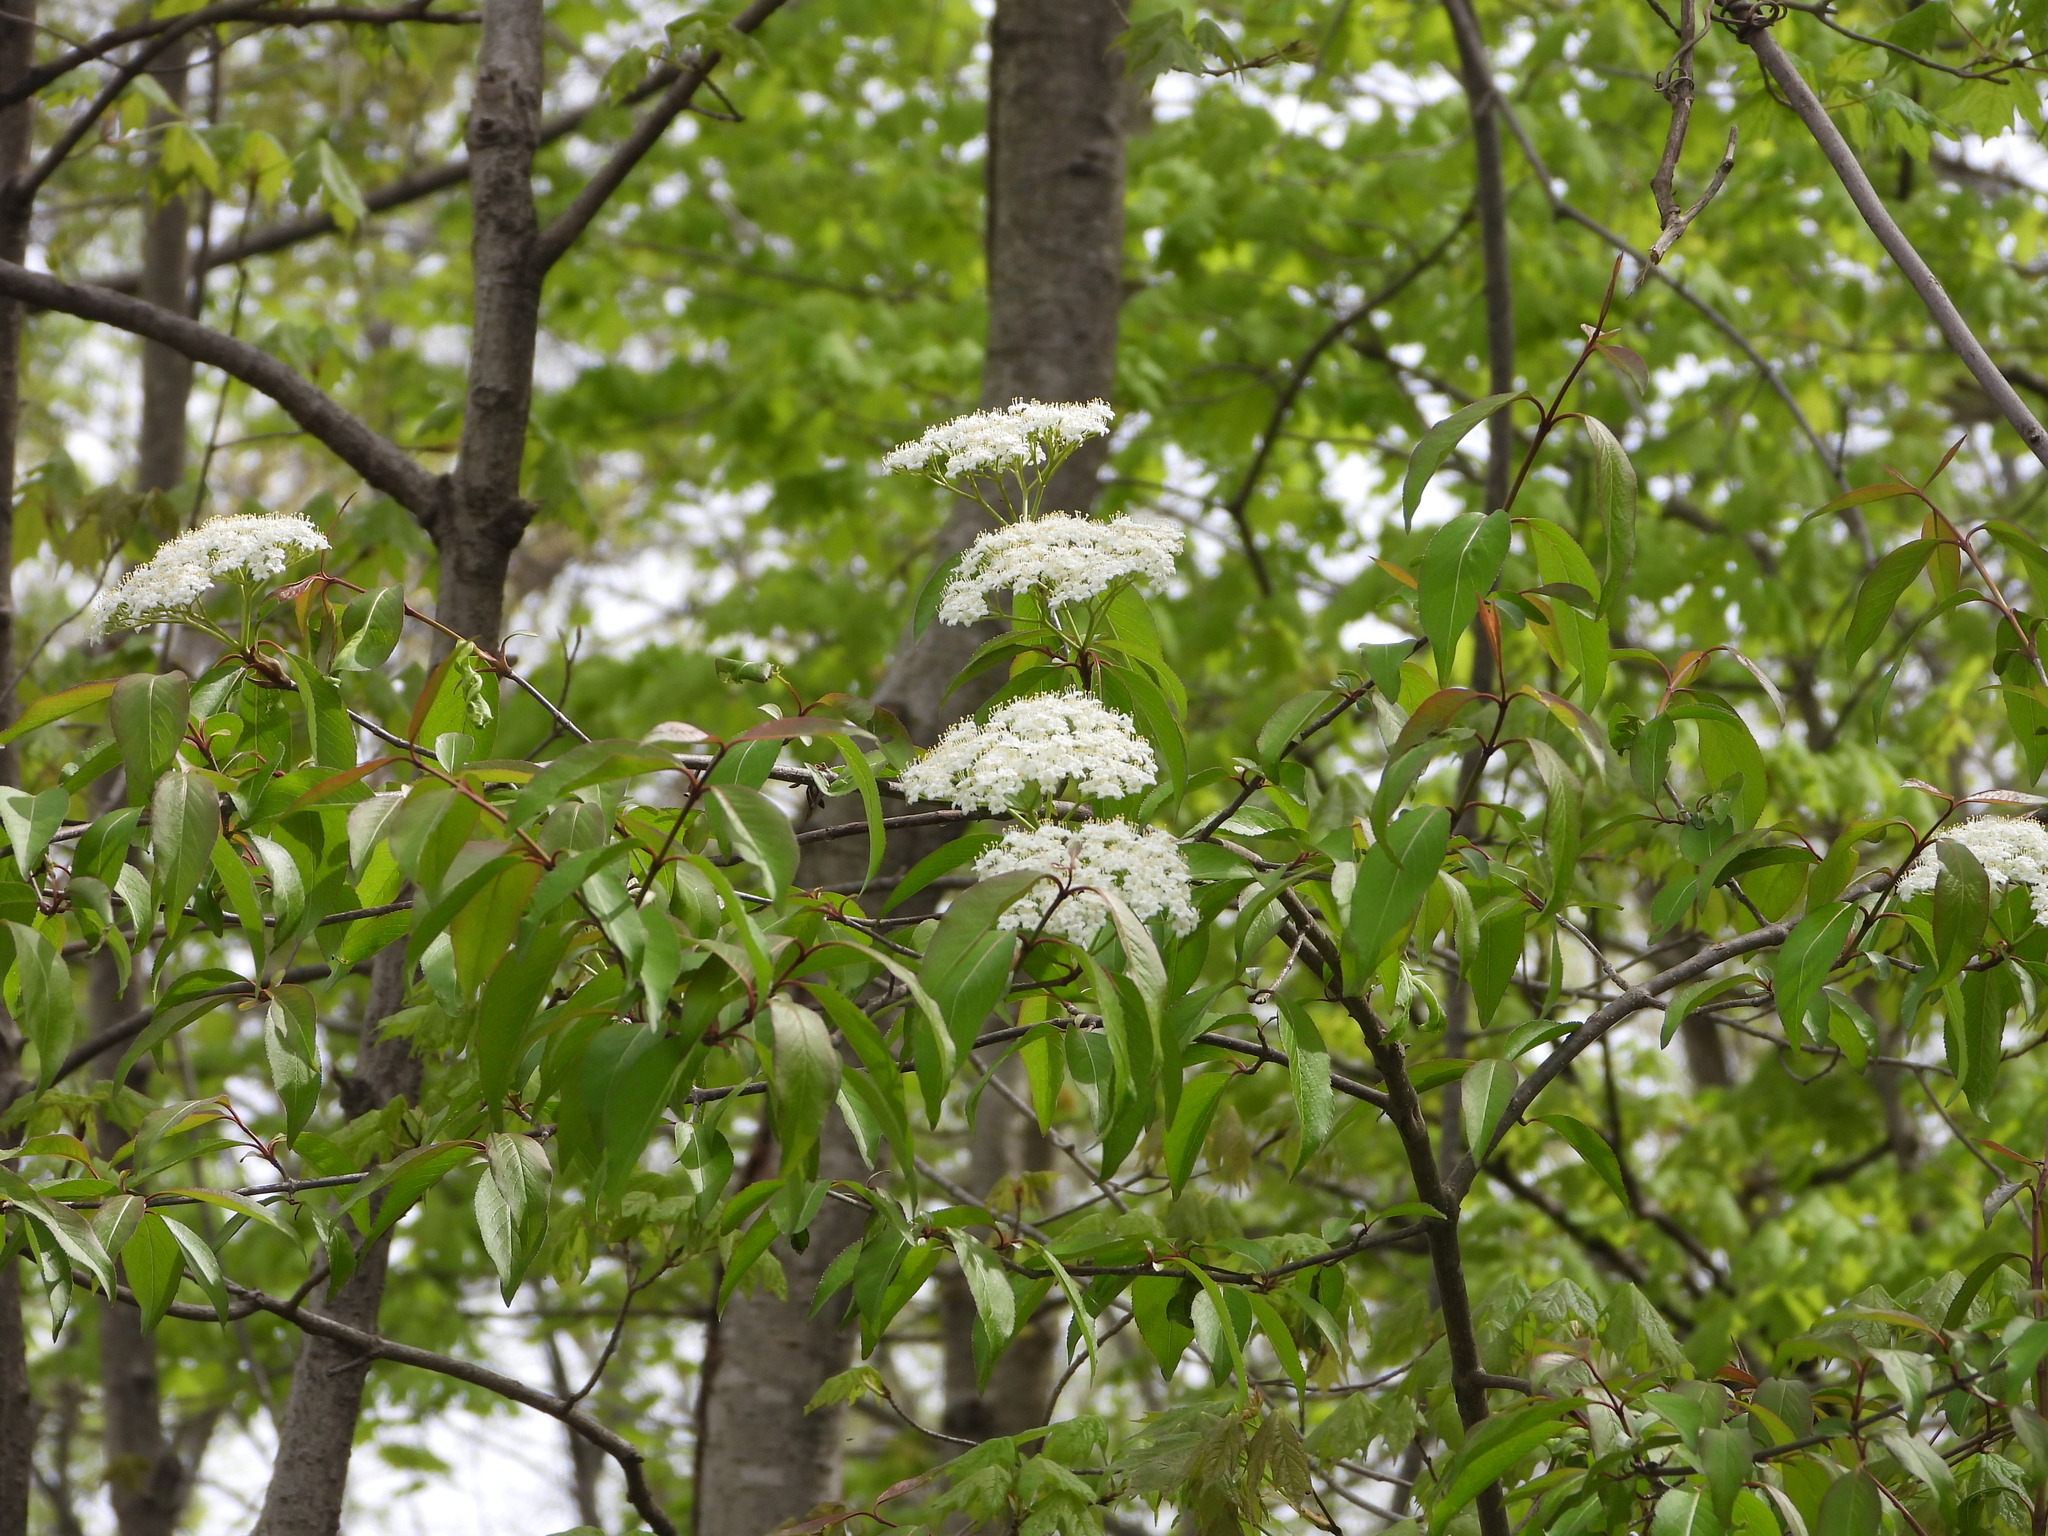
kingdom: Plantae
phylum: Tracheophyta
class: Magnoliopsida
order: Dipsacales
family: Viburnaceae
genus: Viburnum
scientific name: Viburnum prunifolium
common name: Black haw
